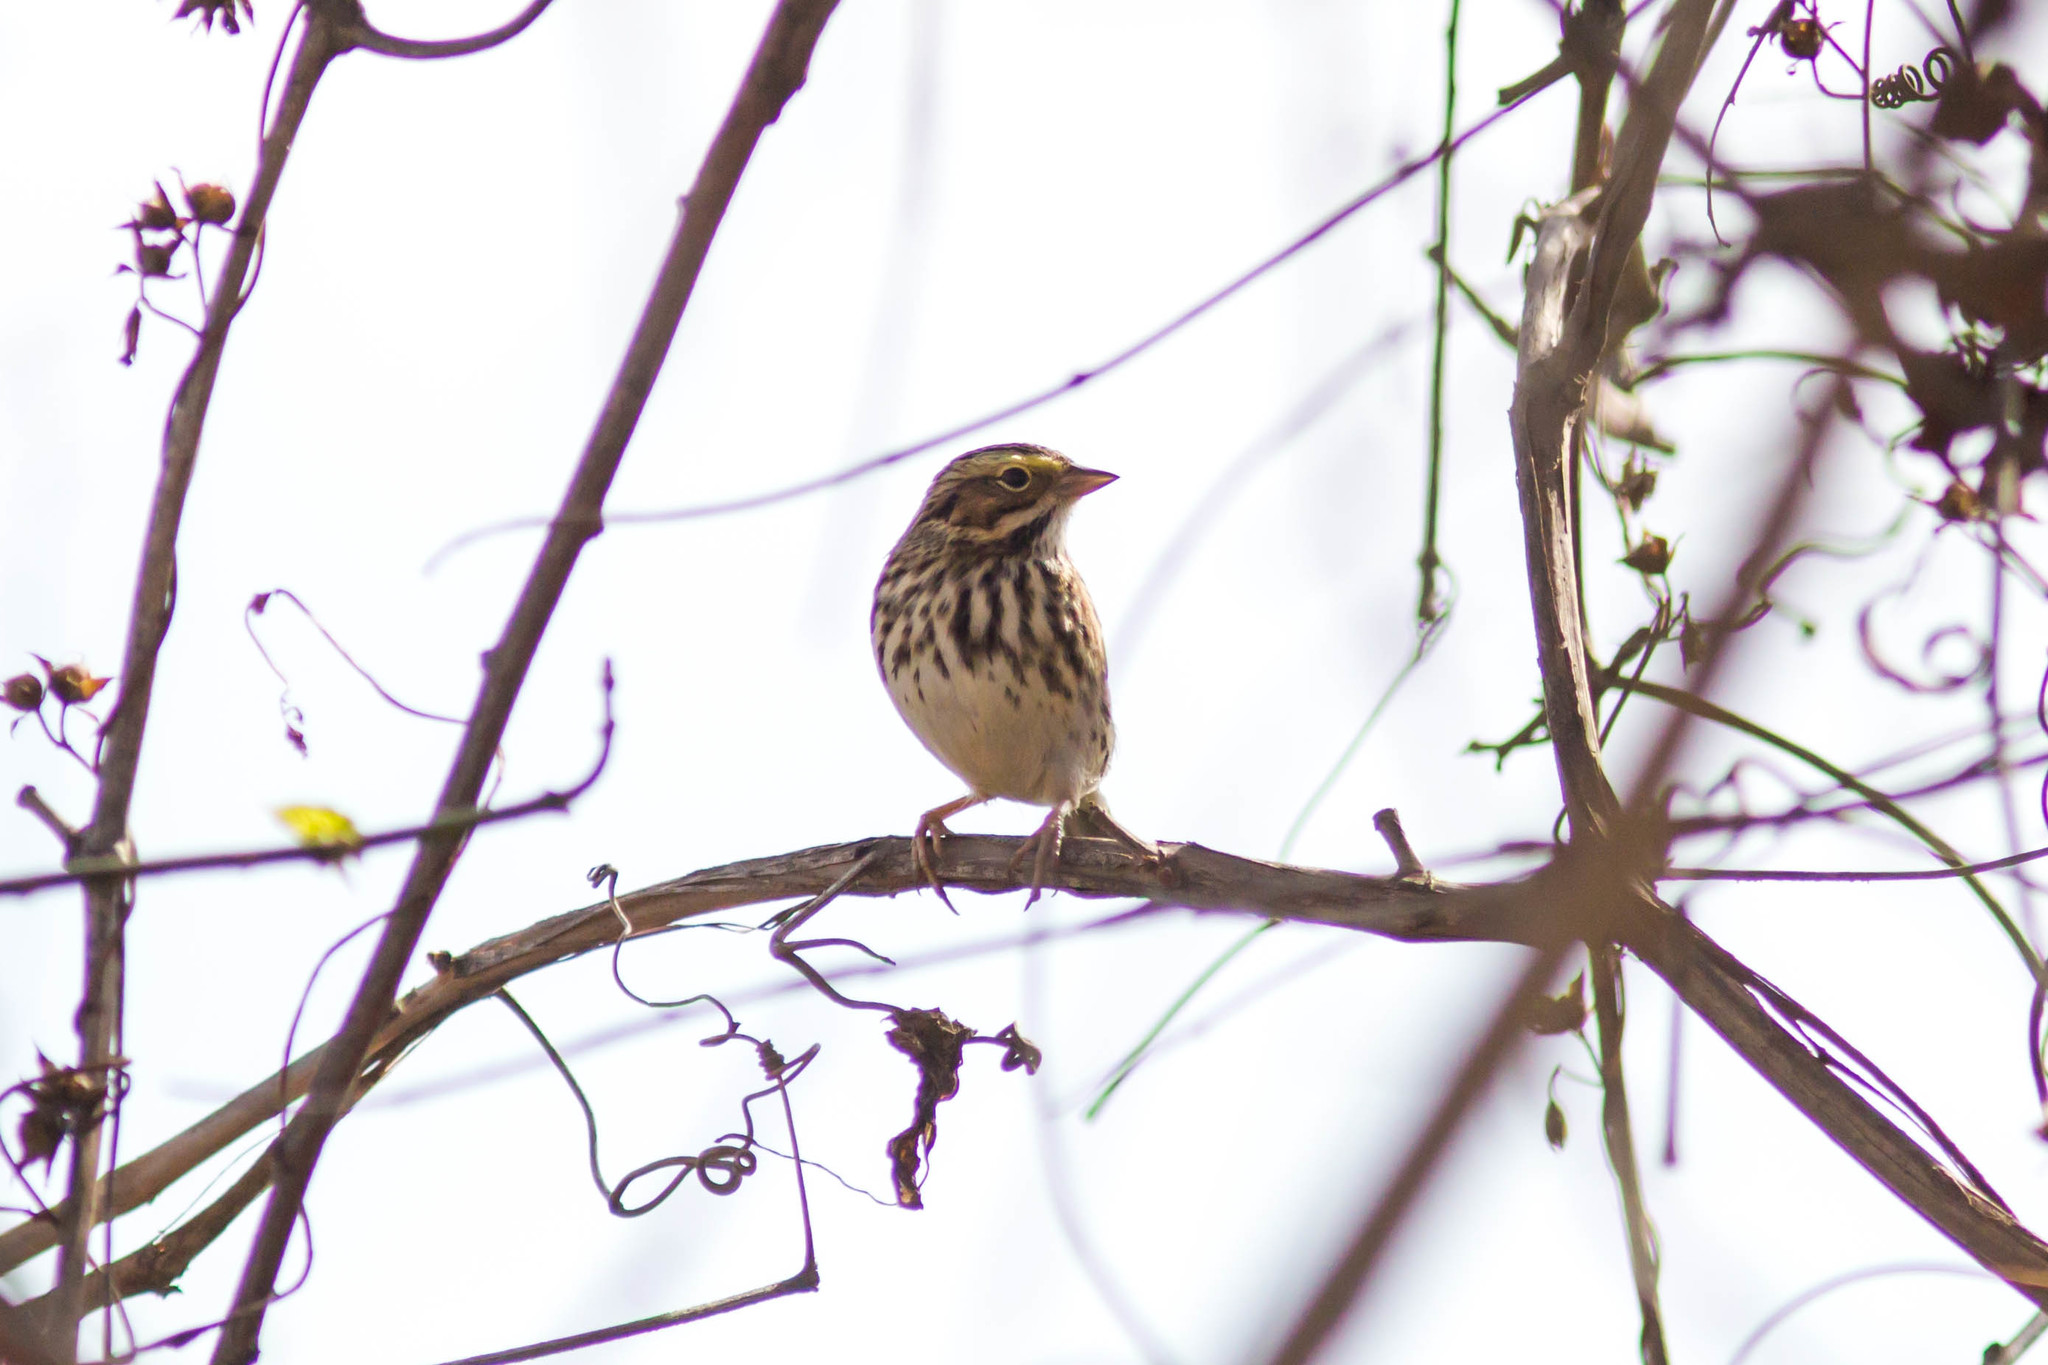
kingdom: Animalia
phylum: Chordata
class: Aves
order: Passeriformes
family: Passerellidae
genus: Passerculus
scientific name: Passerculus sandwichensis
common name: Savannah sparrow
